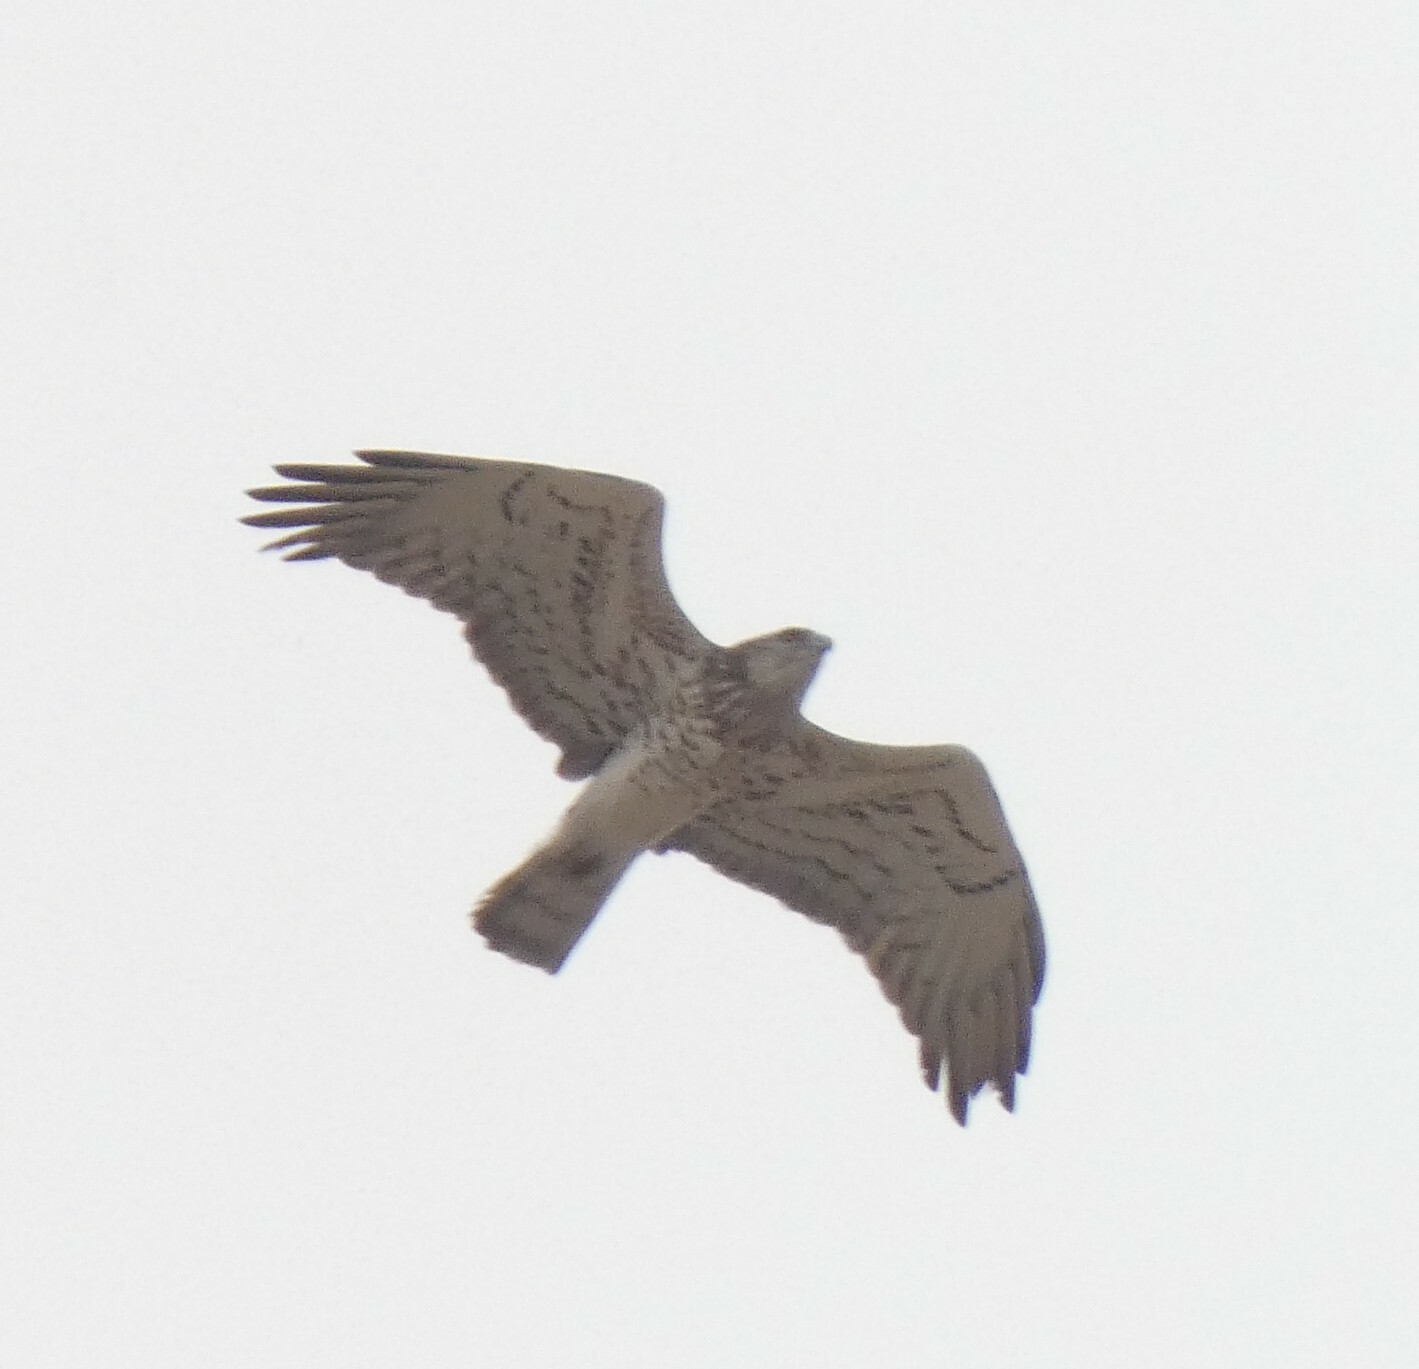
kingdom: Animalia
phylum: Chordata
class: Aves
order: Accipitriformes
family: Accipitridae
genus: Circaetus
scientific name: Circaetus gallicus
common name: Short-toed snake eagle
